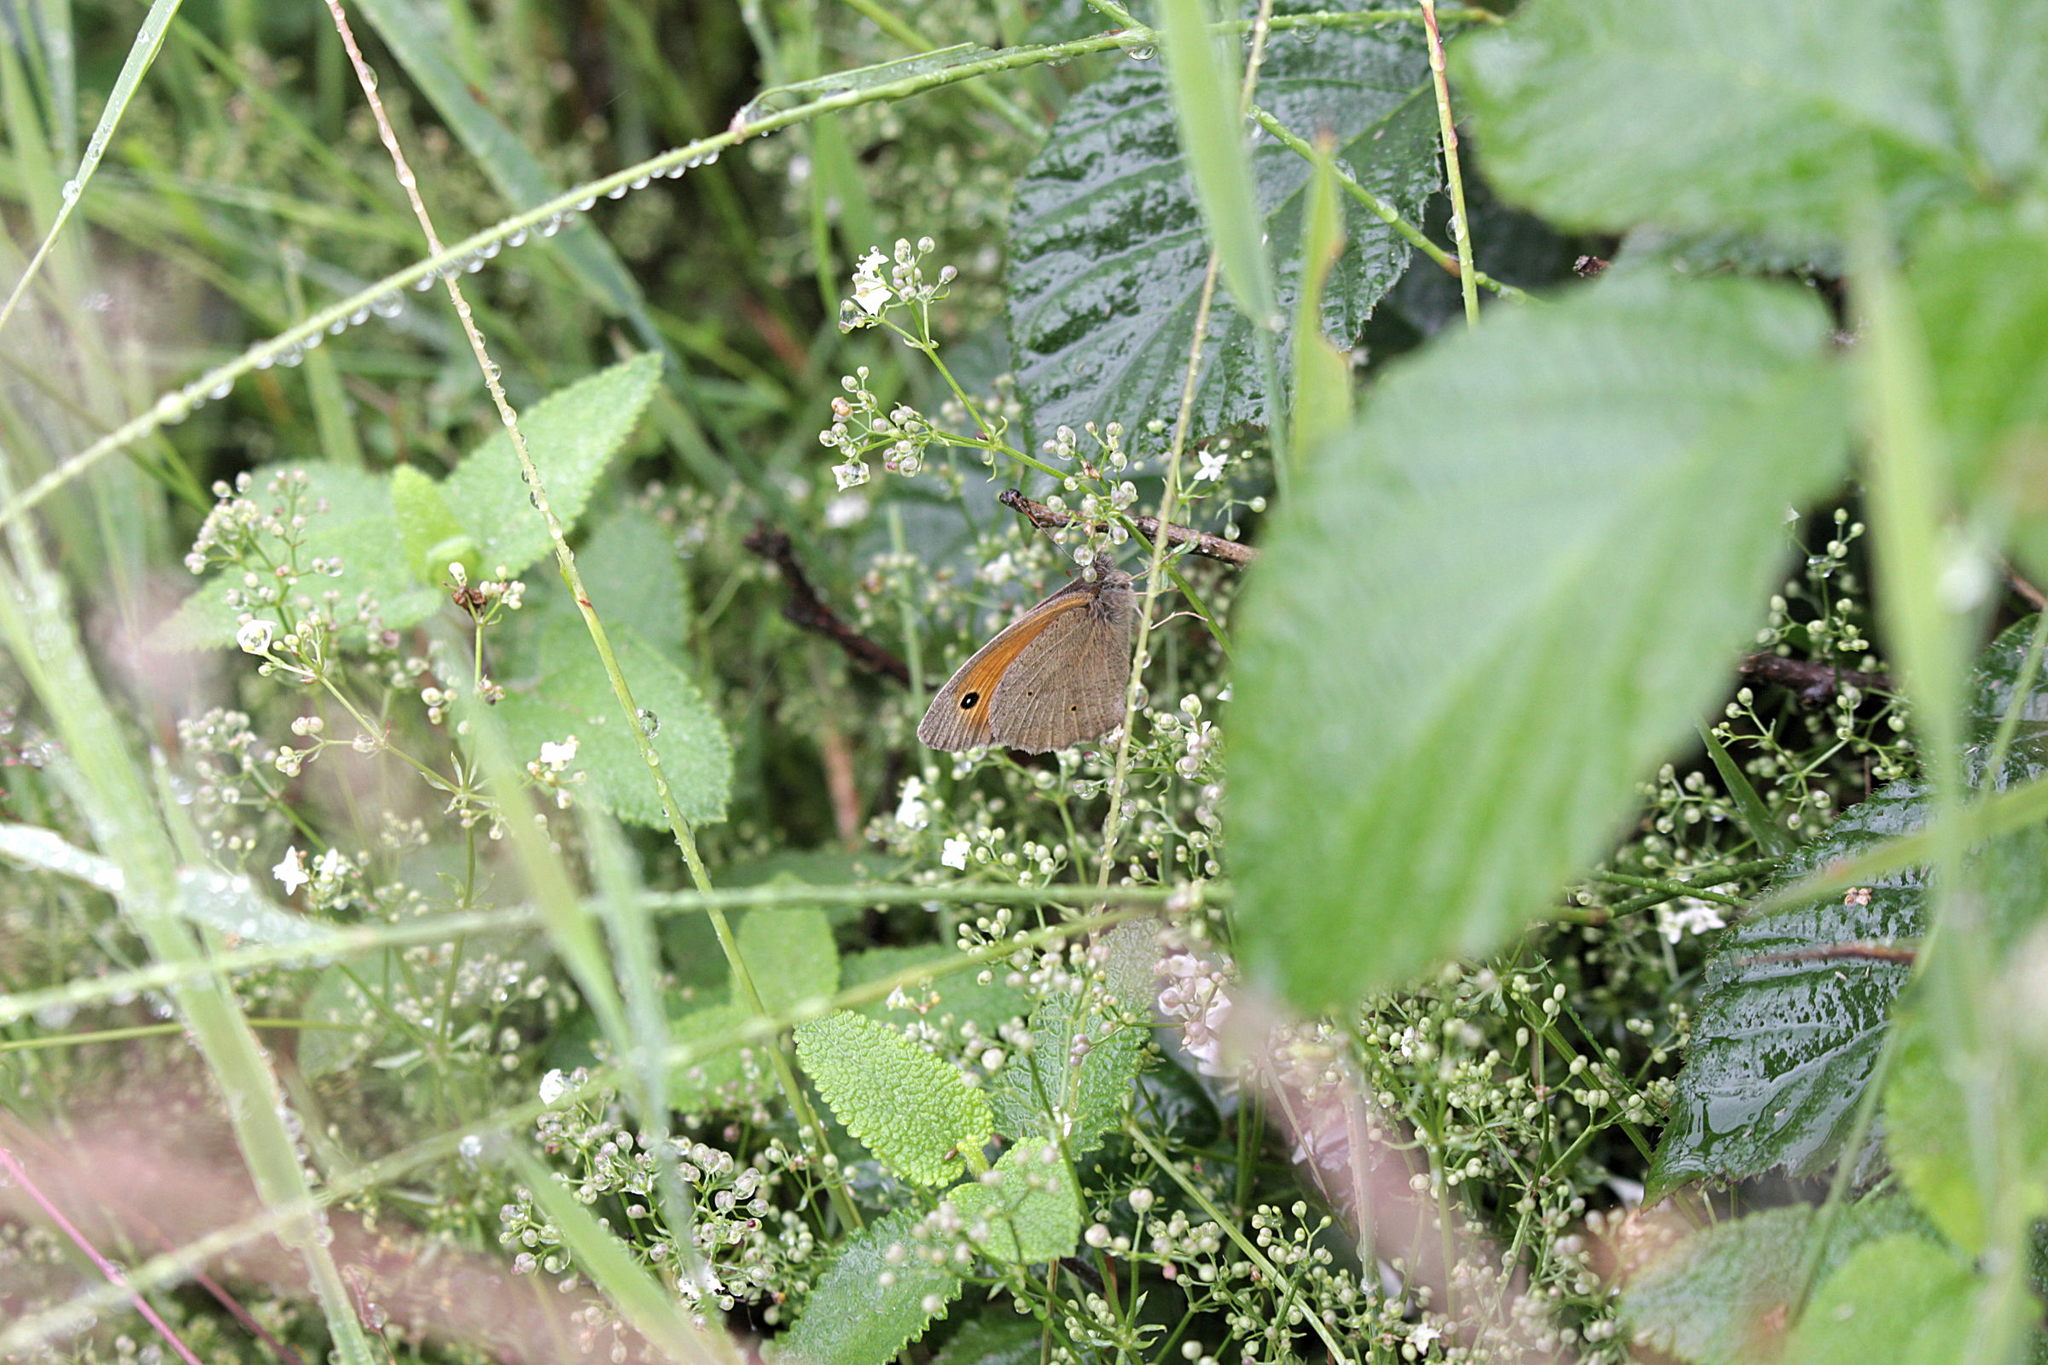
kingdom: Animalia
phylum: Arthropoda
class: Insecta
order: Lepidoptera
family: Nymphalidae
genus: Maniola
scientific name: Maniola jurtina
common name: Meadow brown
